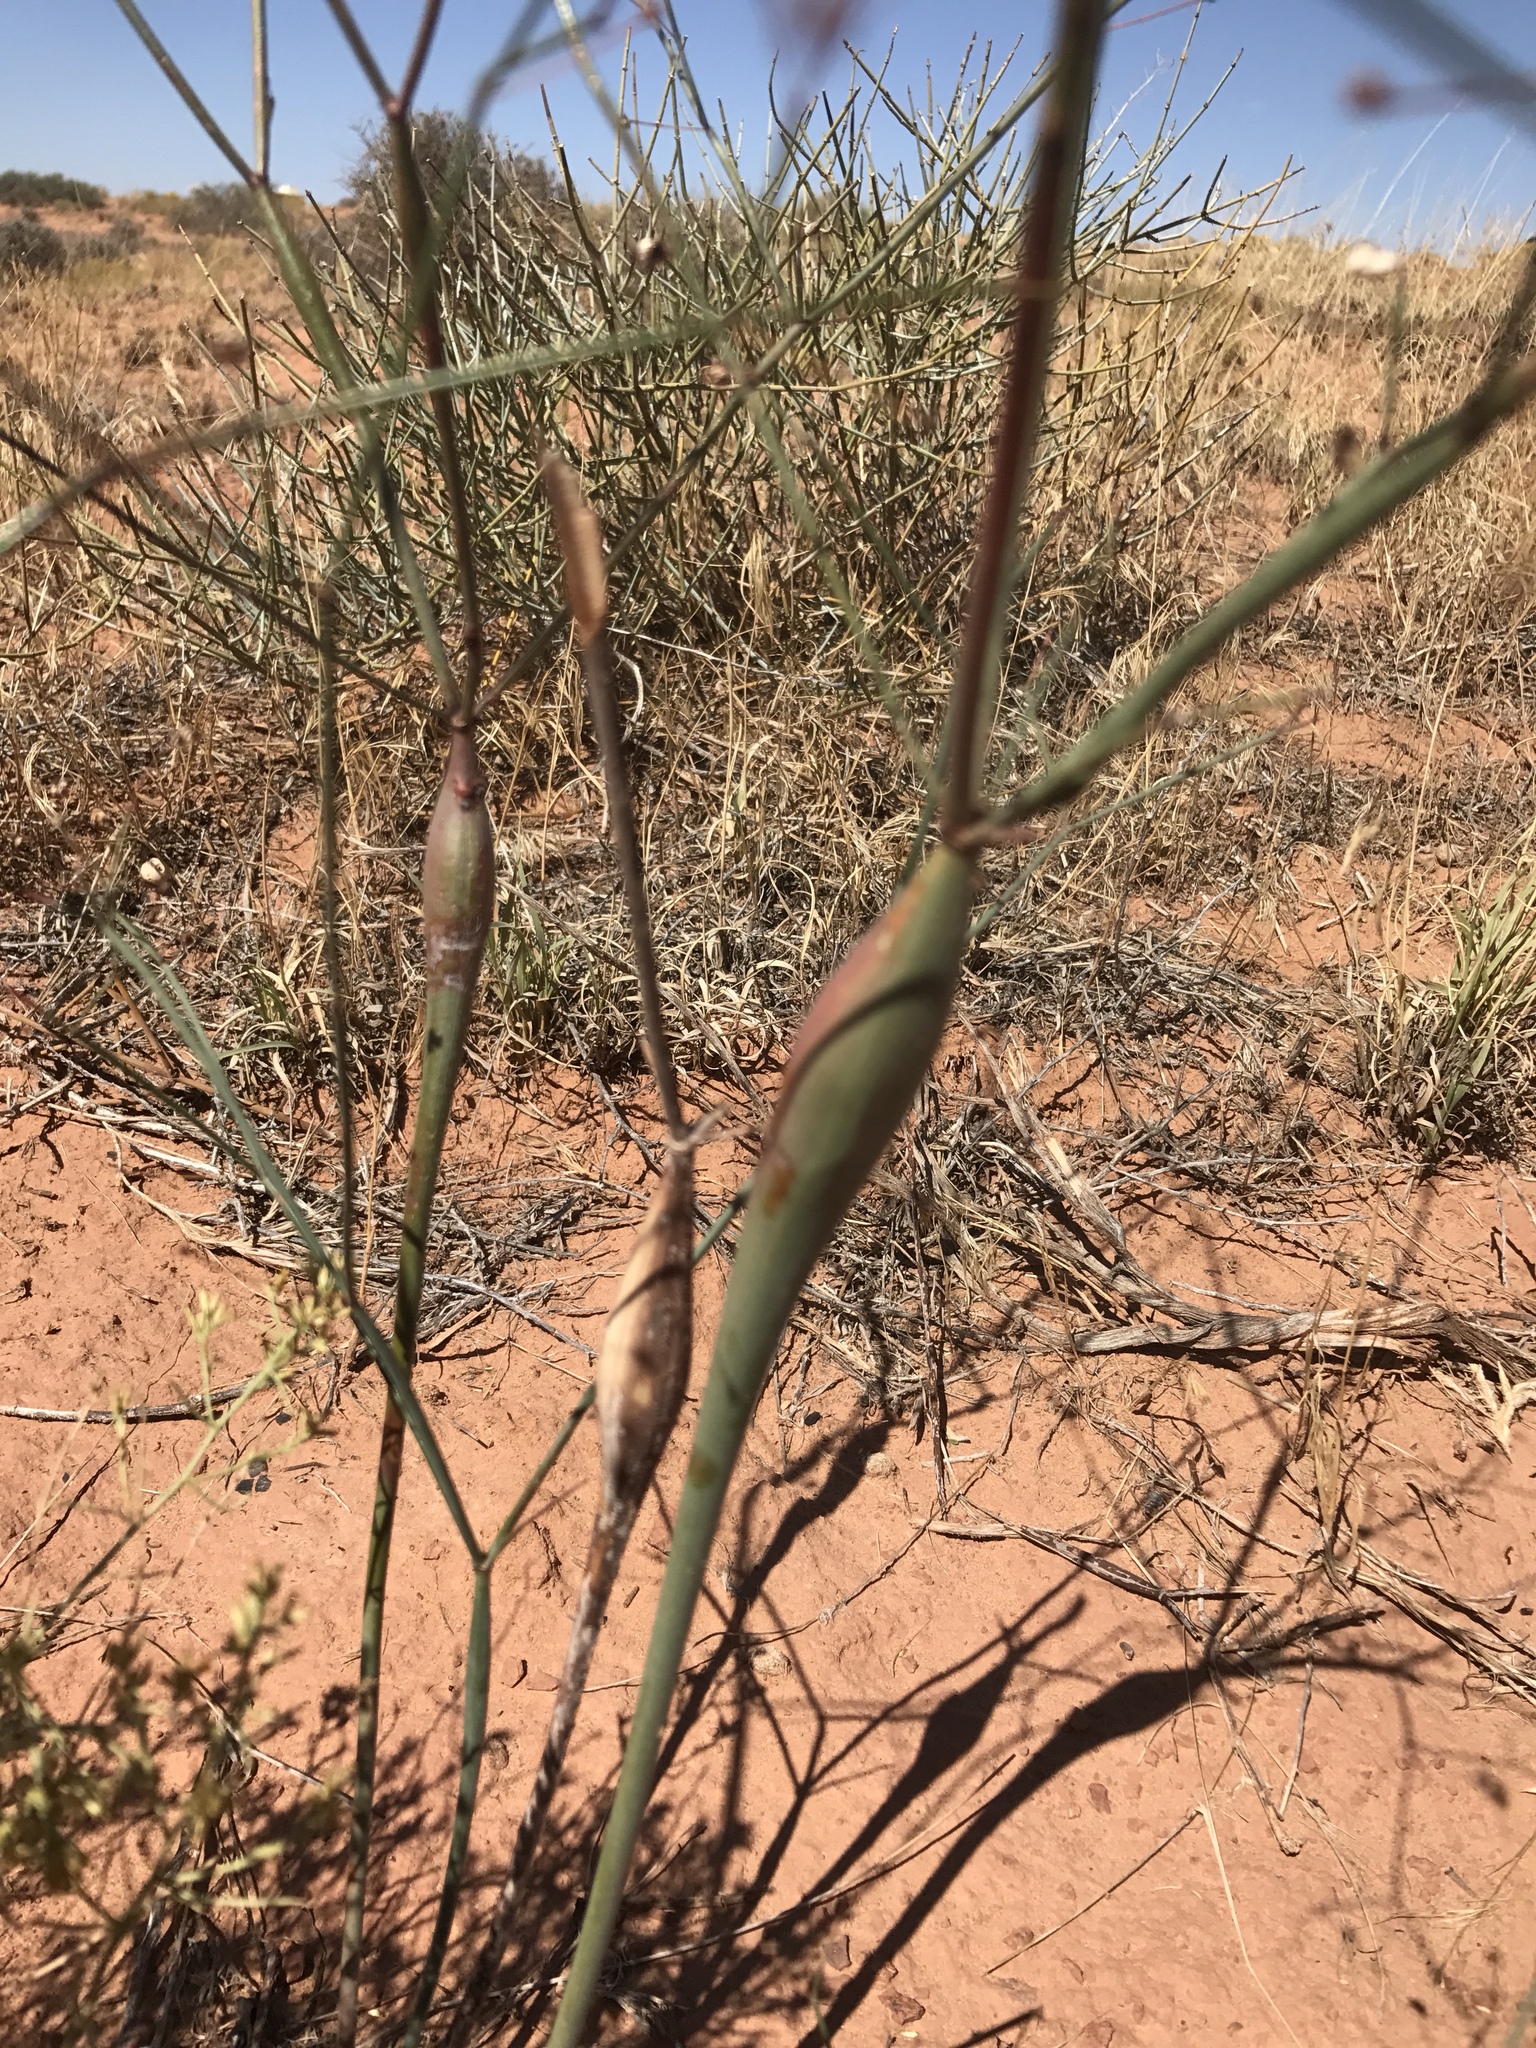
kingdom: Plantae
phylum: Tracheophyta
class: Magnoliopsida
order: Caryophyllales
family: Polygonaceae
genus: Eriogonum
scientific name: Eriogonum inflatum
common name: Desert trumpet
